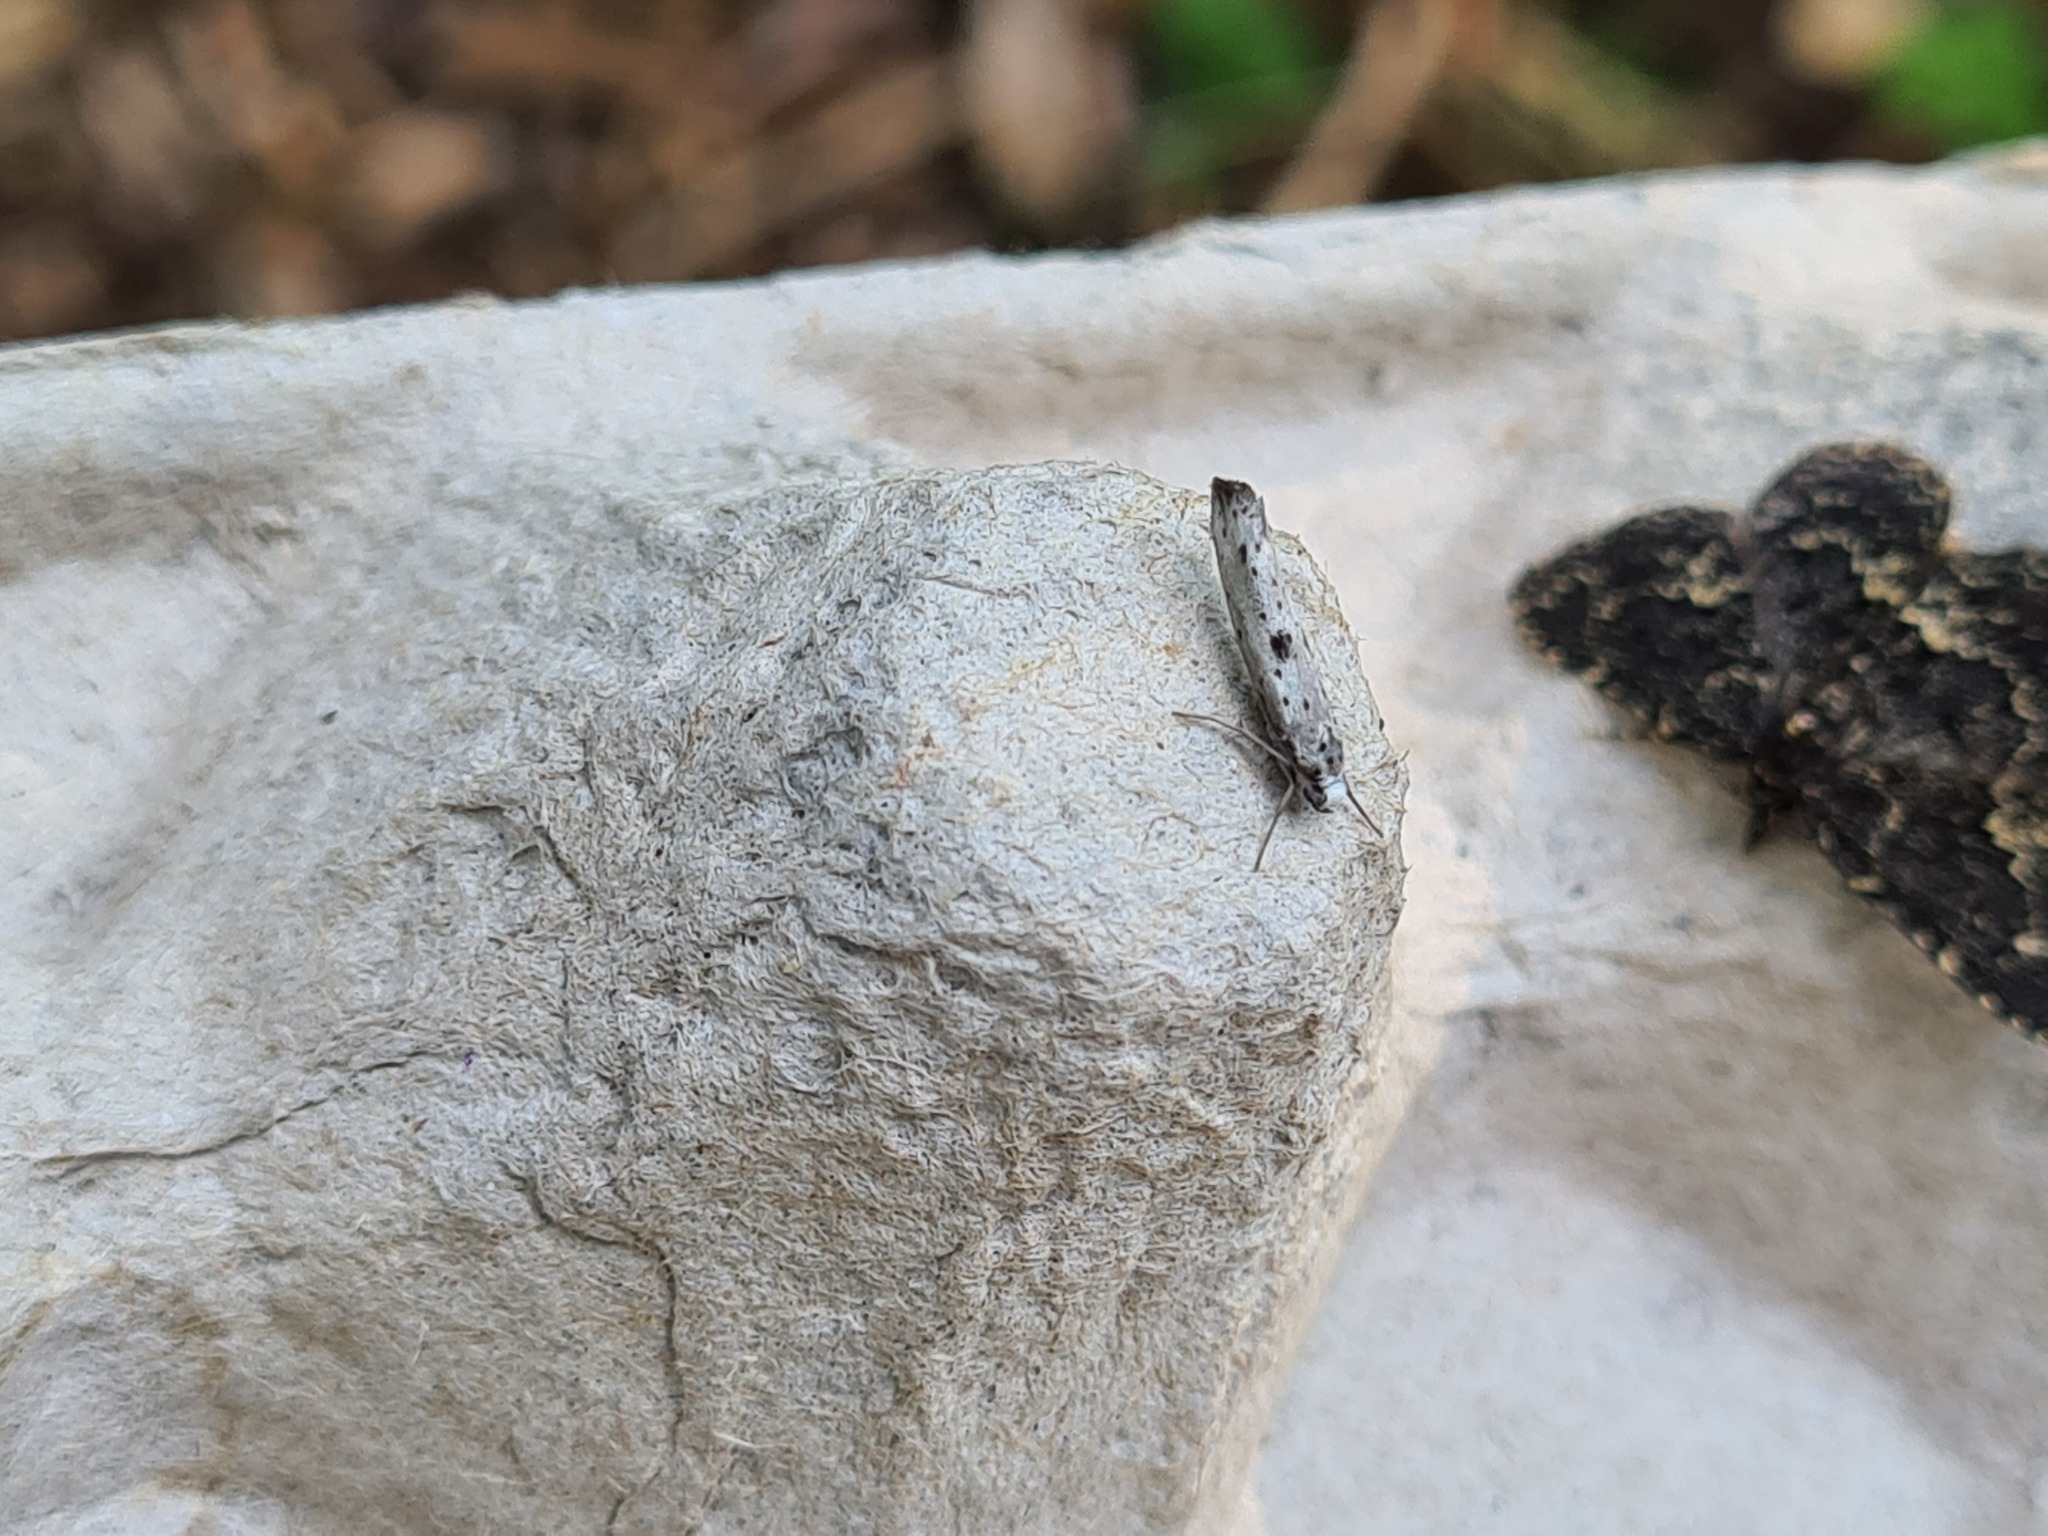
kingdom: Animalia
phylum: Arthropoda
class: Insecta
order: Lepidoptera
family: Yponomeutidae
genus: Yponomeuta
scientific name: Yponomeuta plumbella
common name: Black-tipped ermine
